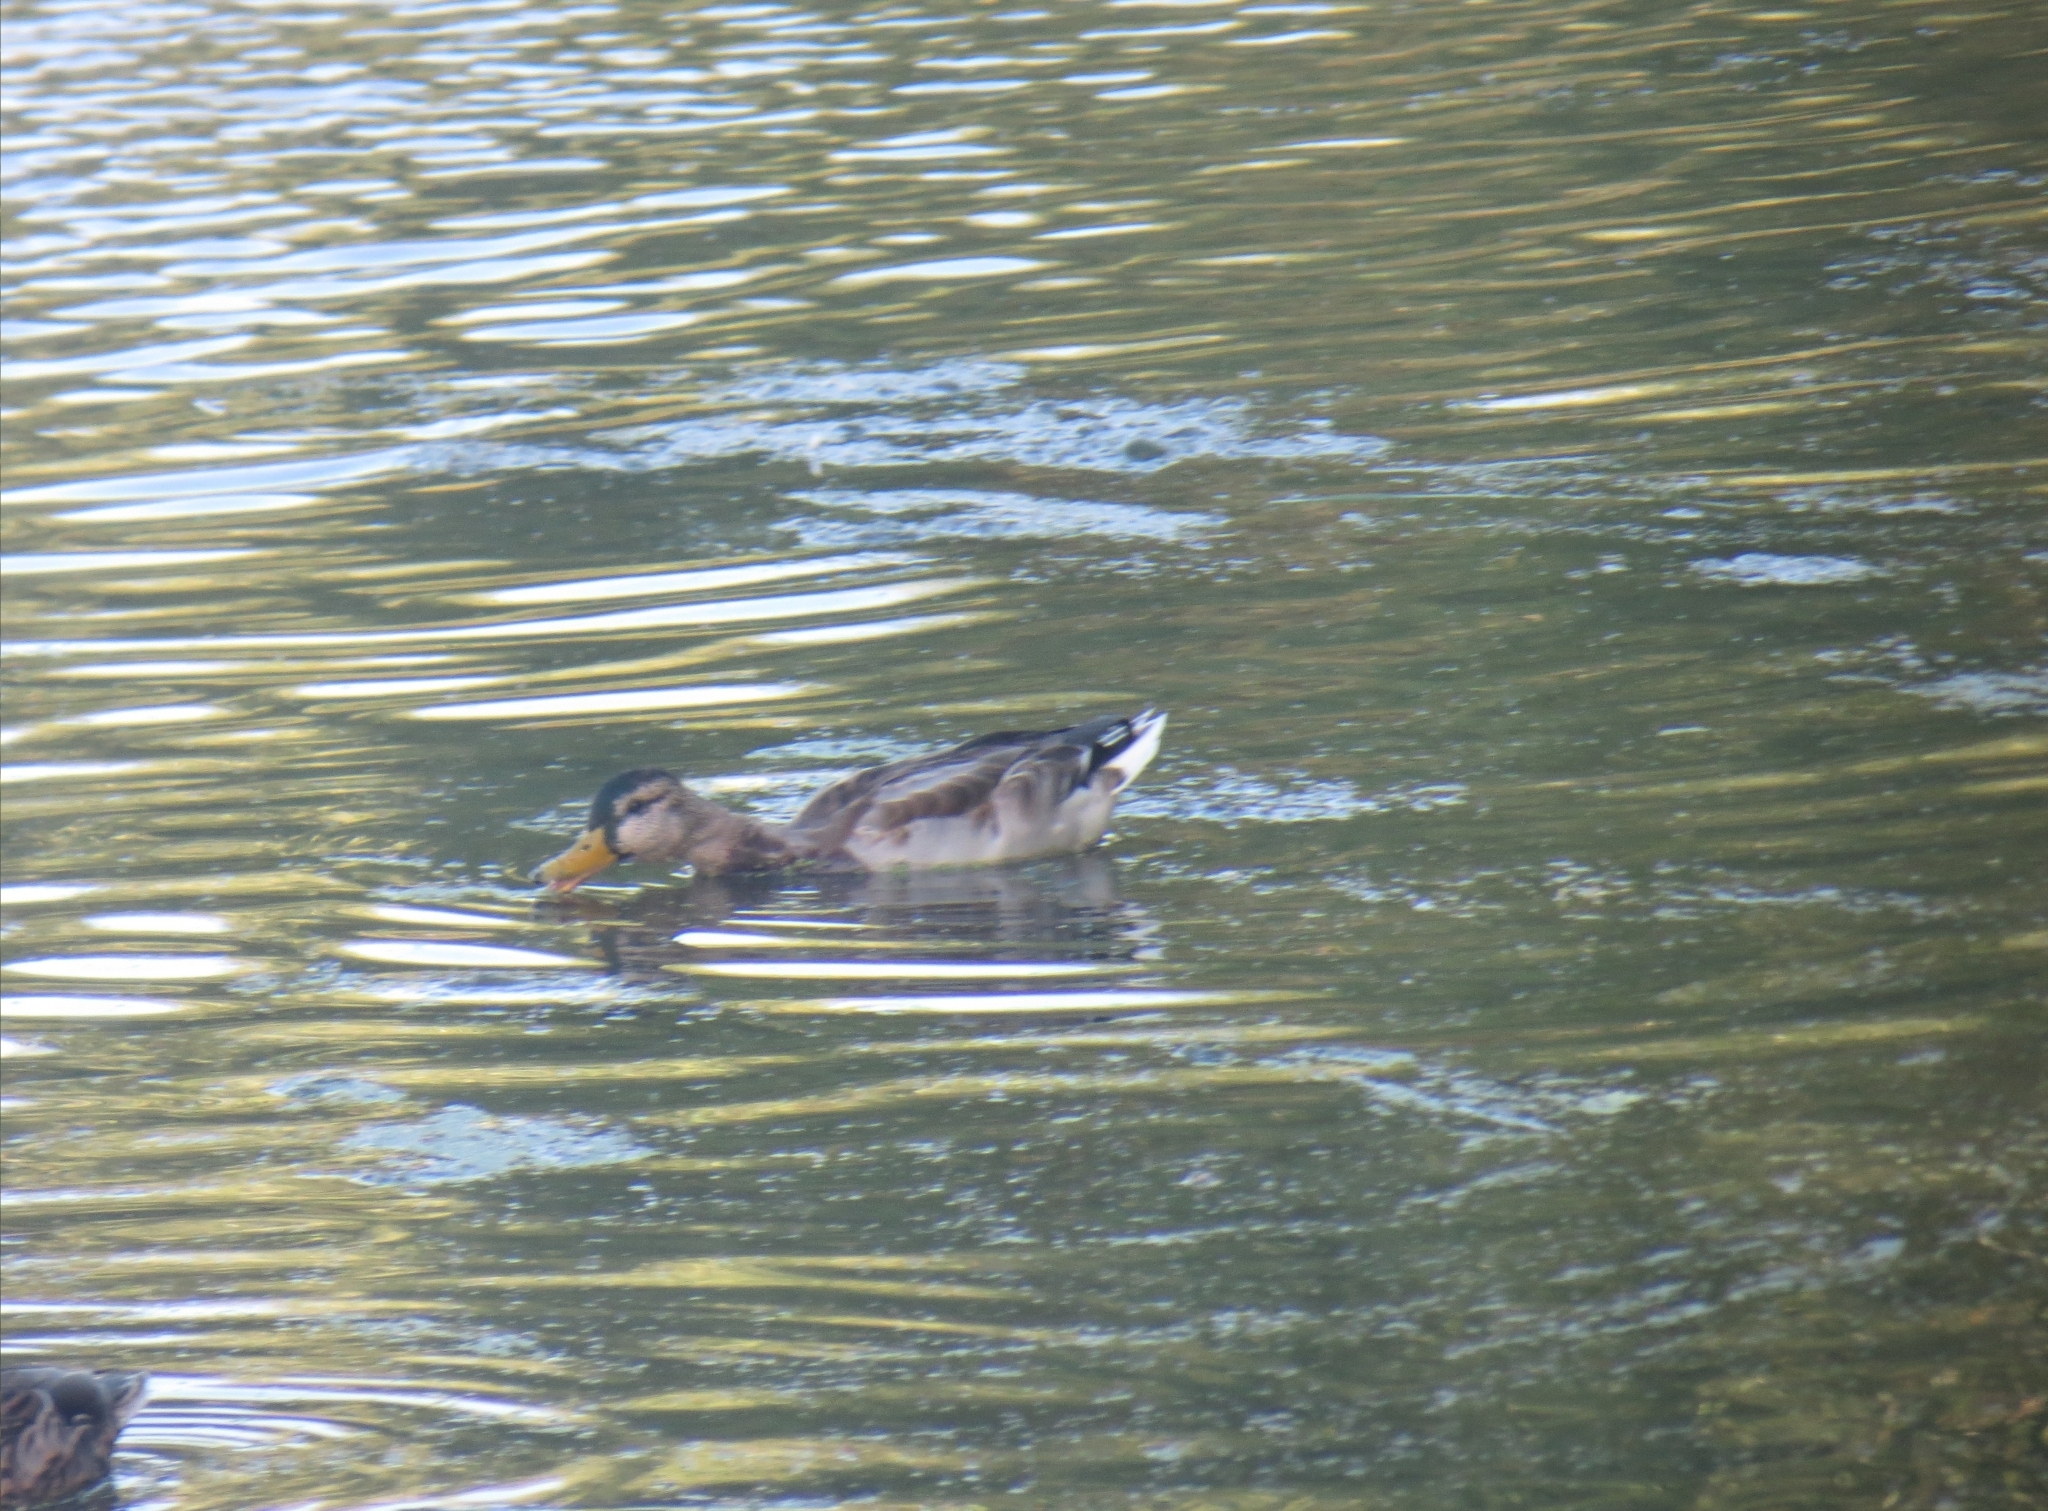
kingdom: Animalia
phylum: Chordata
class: Aves
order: Anseriformes
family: Anatidae
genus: Anas
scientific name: Anas platyrhynchos
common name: Mallard
